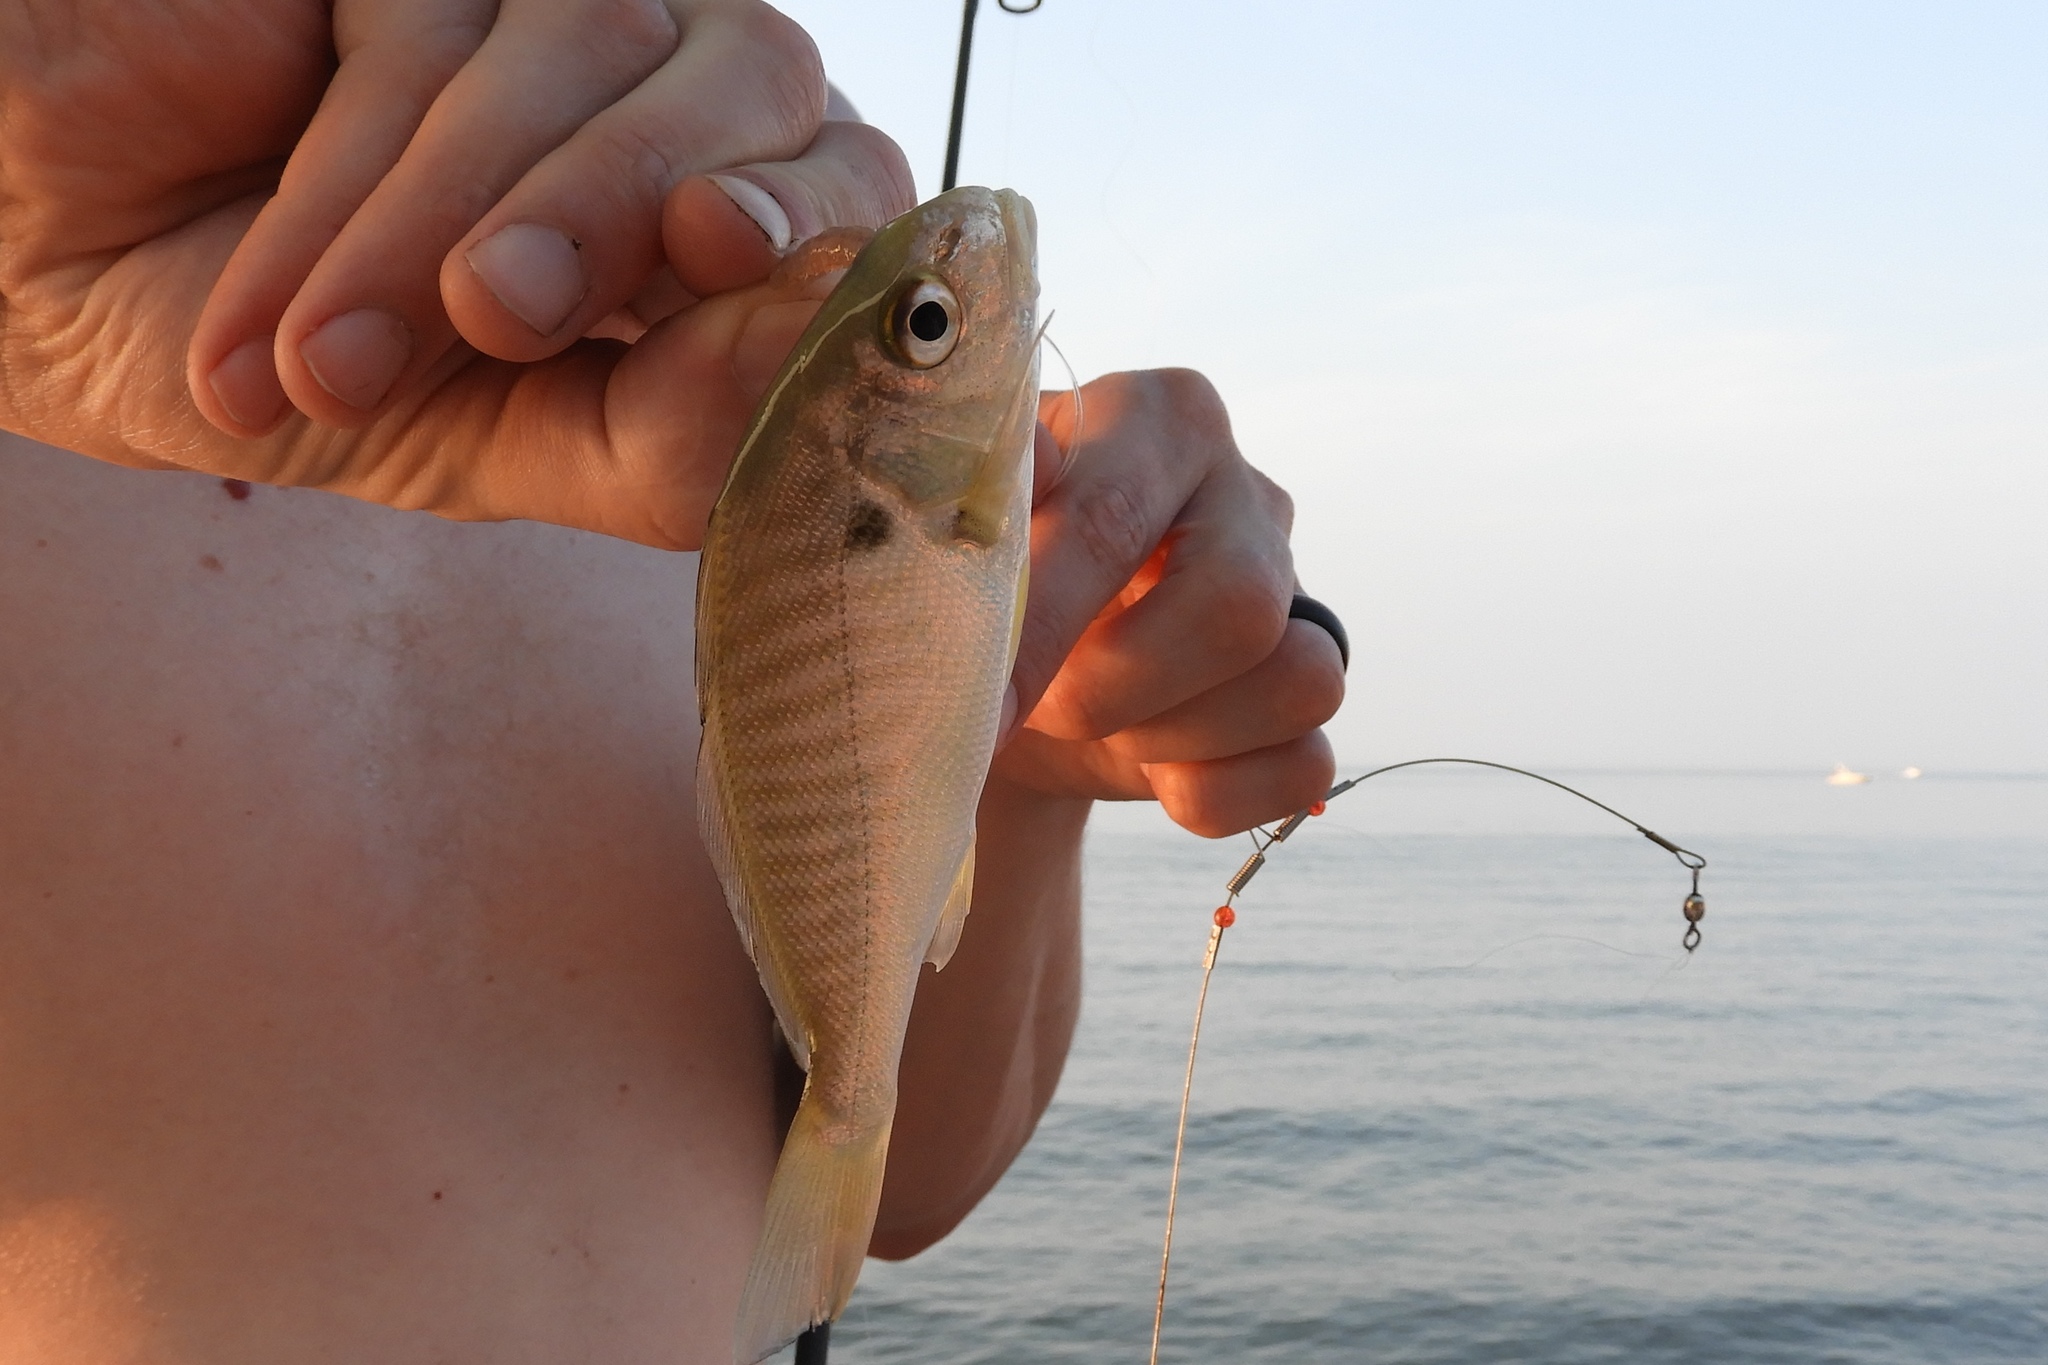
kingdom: Animalia
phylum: Chordata
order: Perciformes
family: Sciaenidae
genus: Leiostomus
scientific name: Leiostomus xanthurus
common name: Spot
